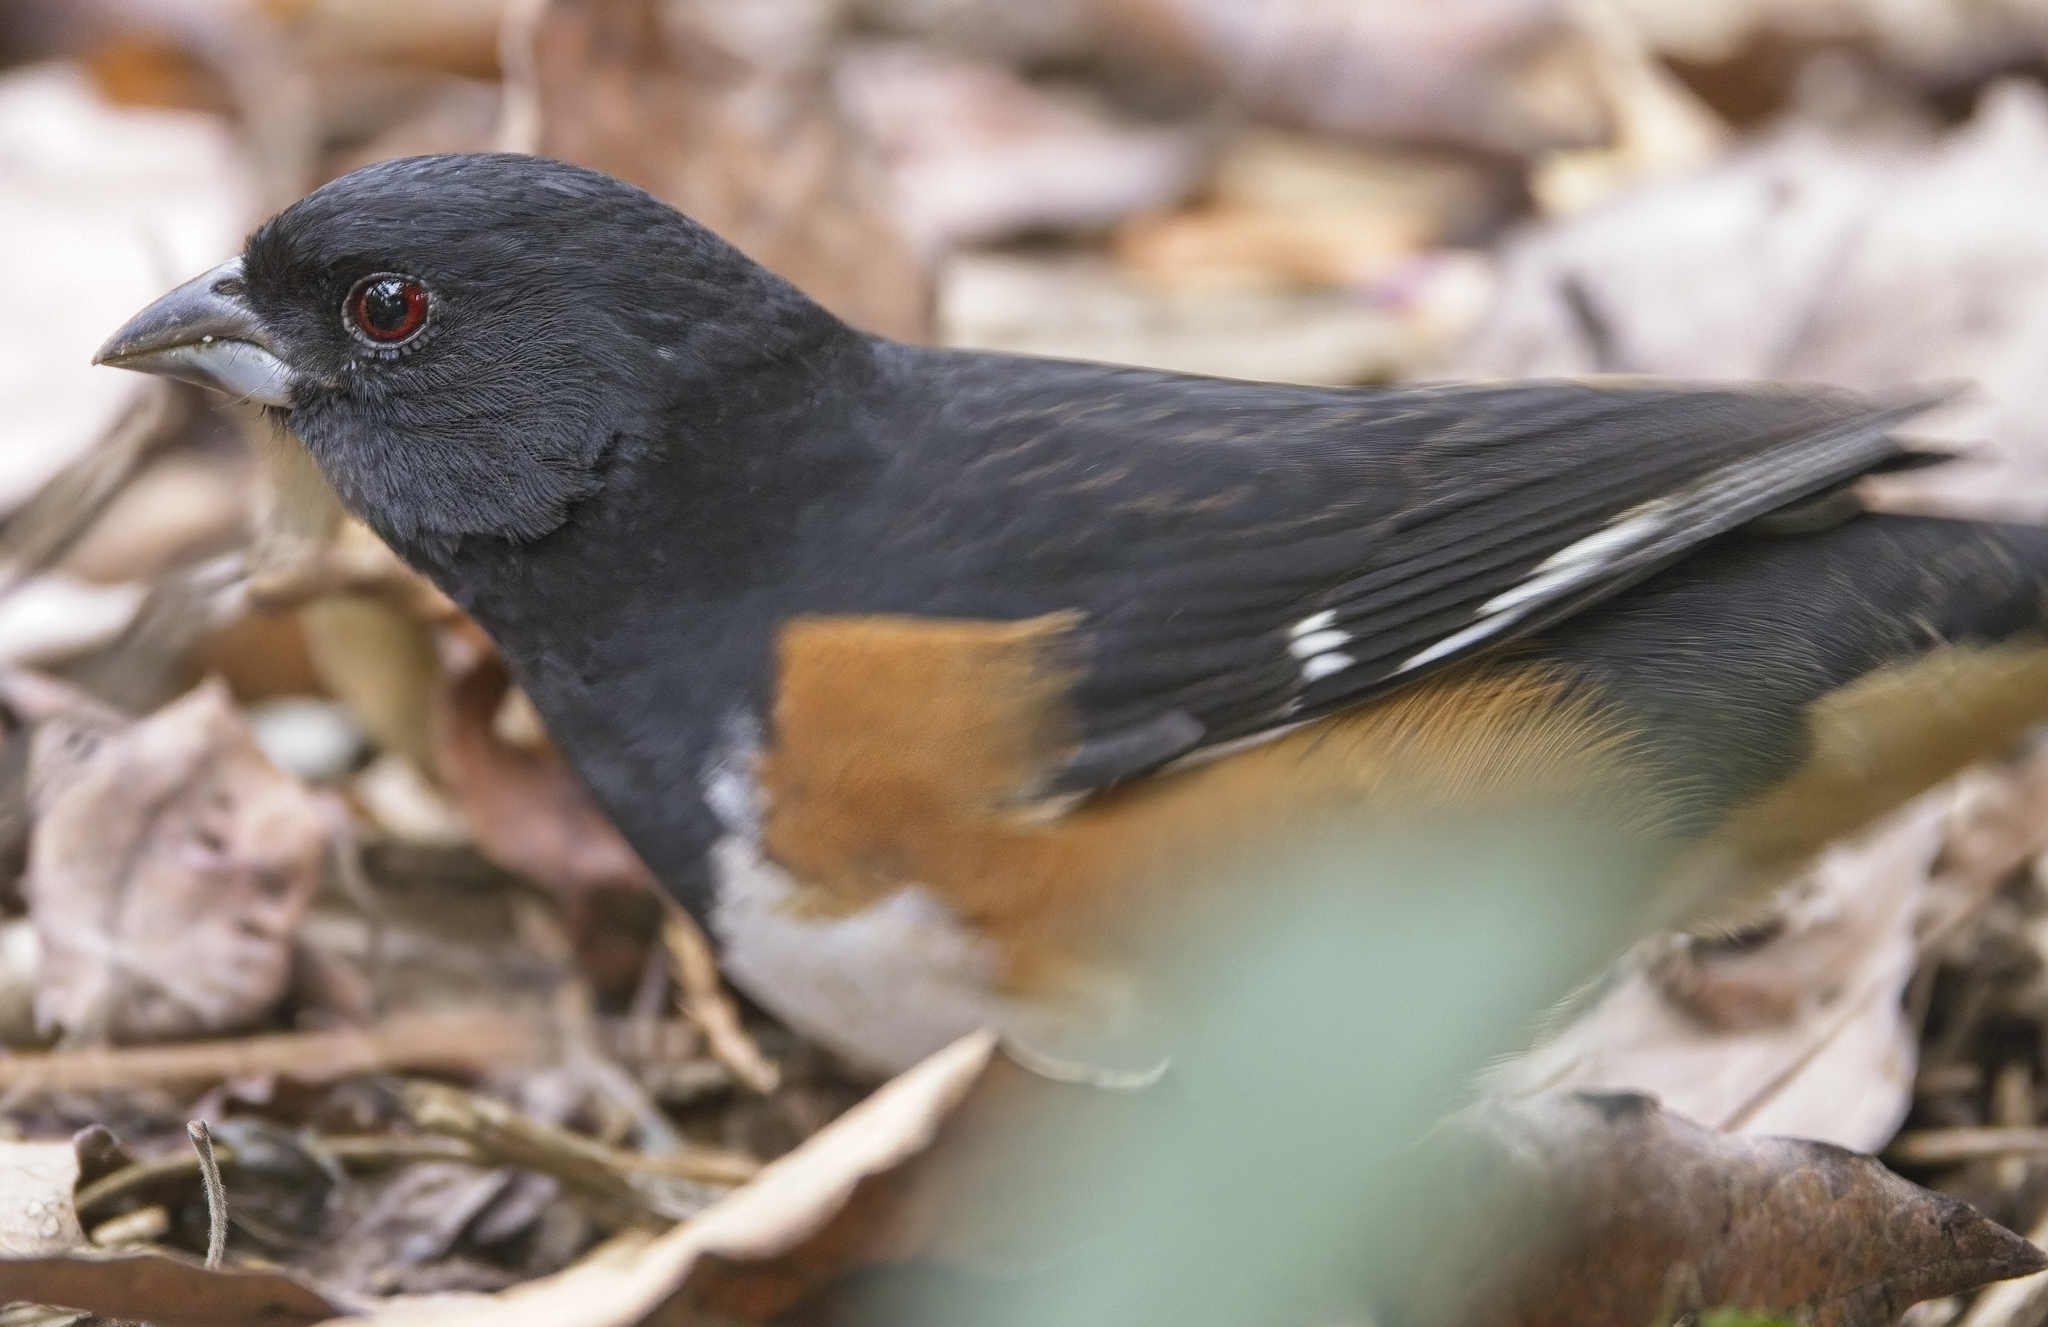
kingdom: Animalia
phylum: Chordata
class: Aves
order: Passeriformes
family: Passerellidae
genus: Pipilo
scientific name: Pipilo erythrophthalmus
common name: Eastern towhee
